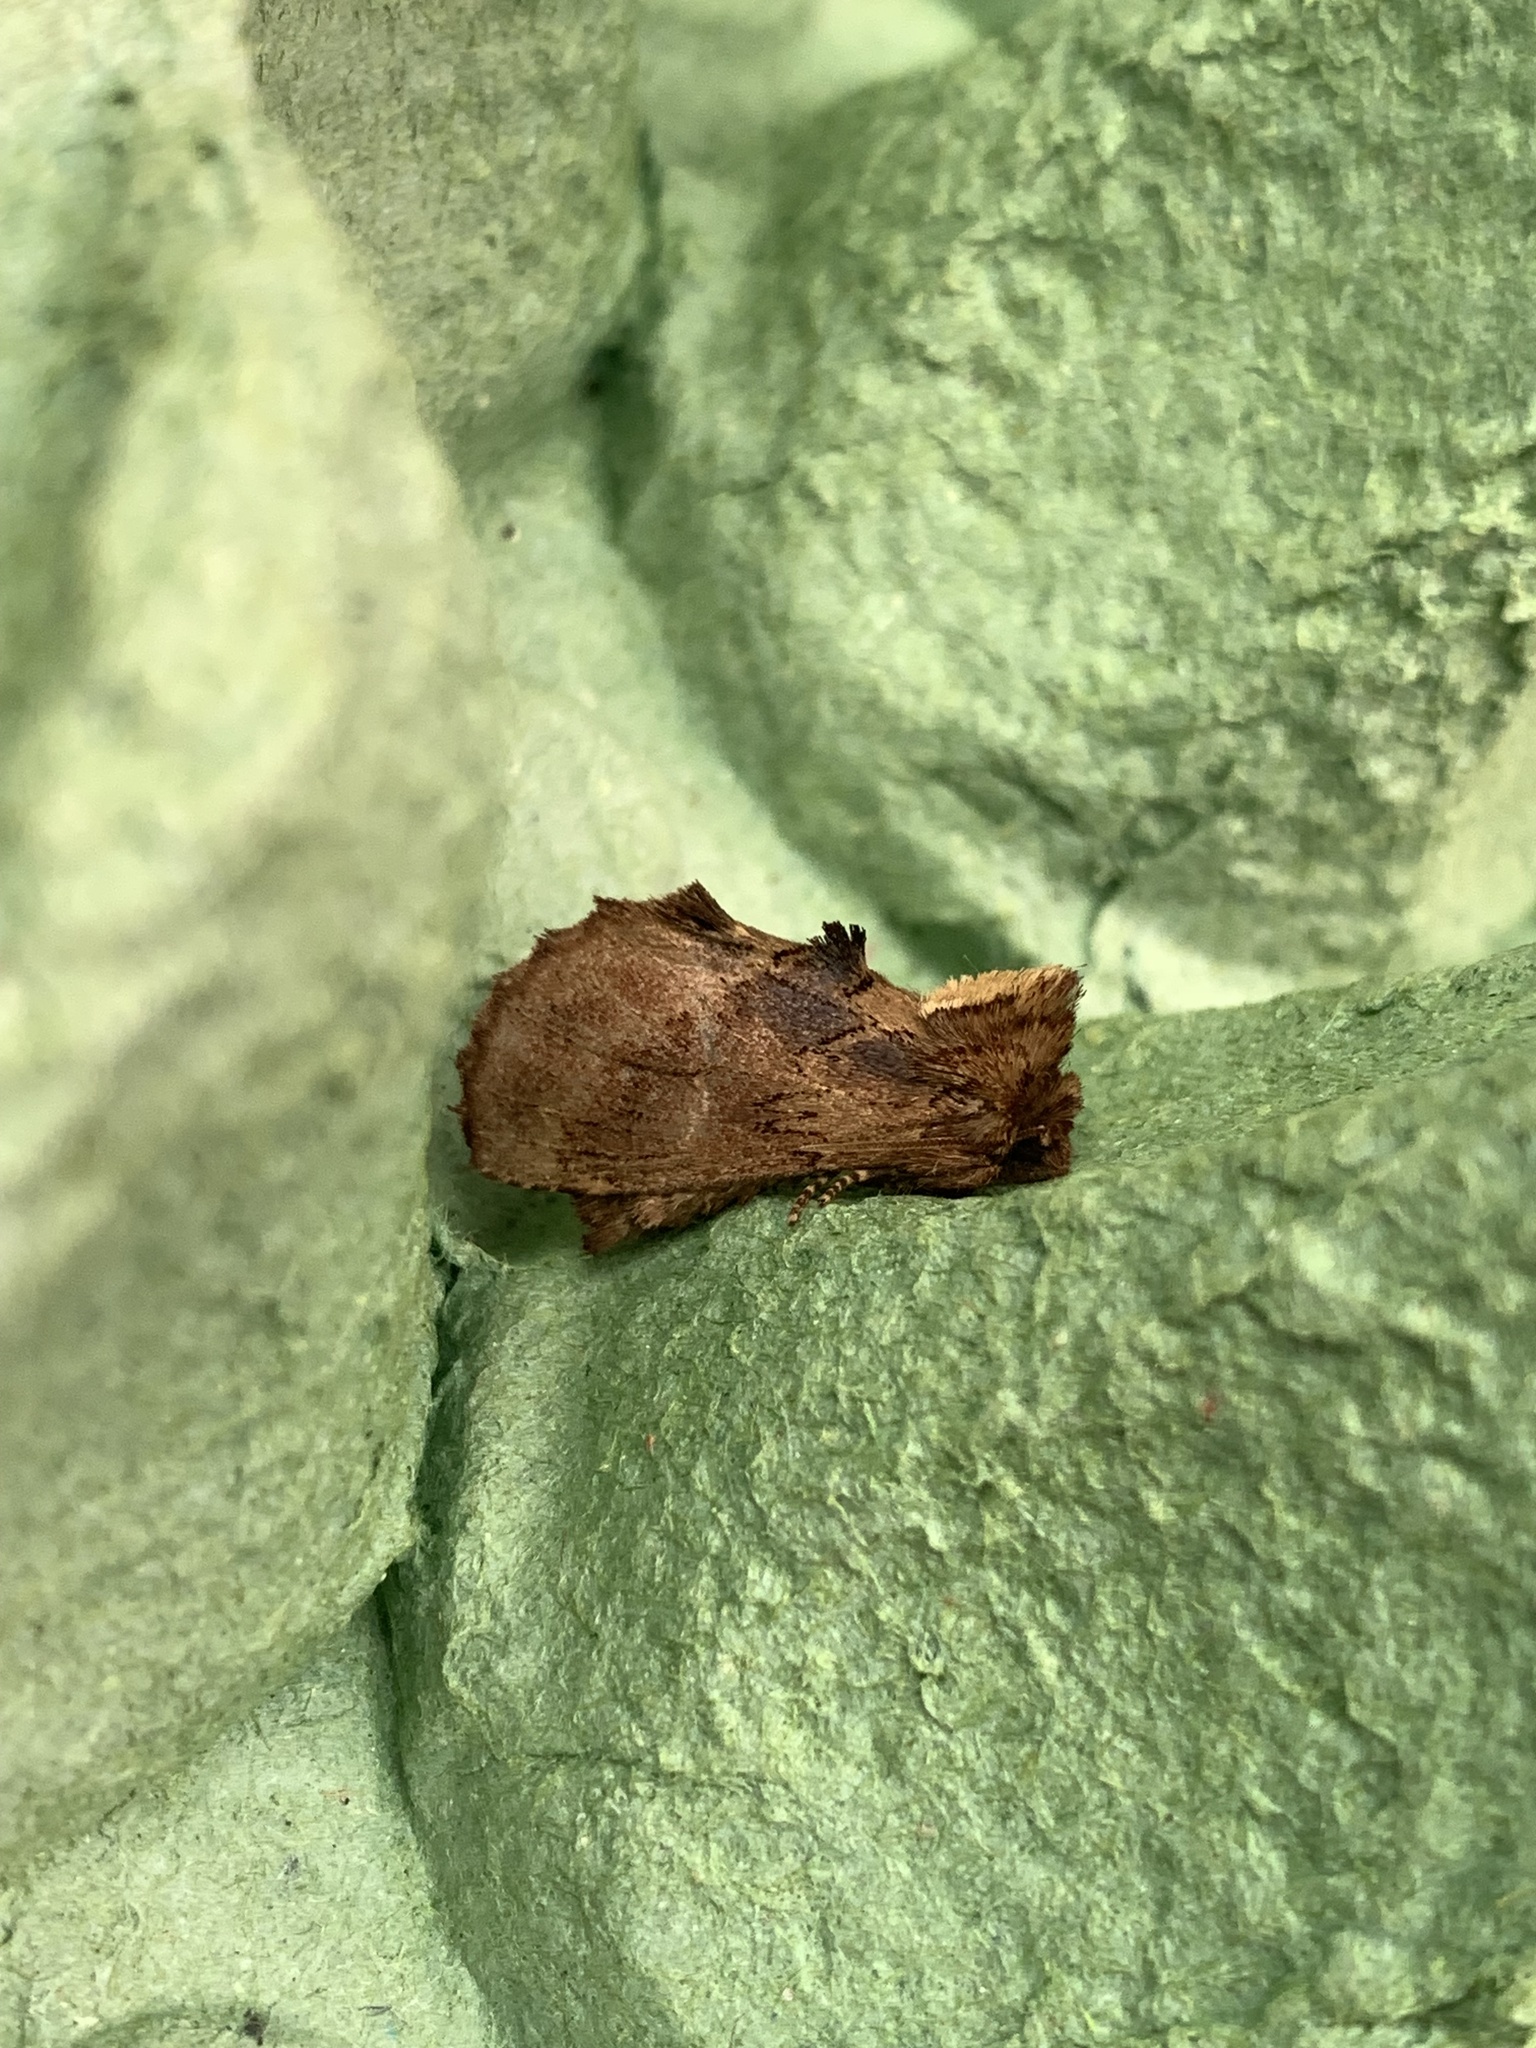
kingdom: Animalia
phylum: Arthropoda
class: Insecta
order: Lepidoptera
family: Notodontidae
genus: Ptilodon
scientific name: Ptilodon capucina
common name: Coxcomb prominent
